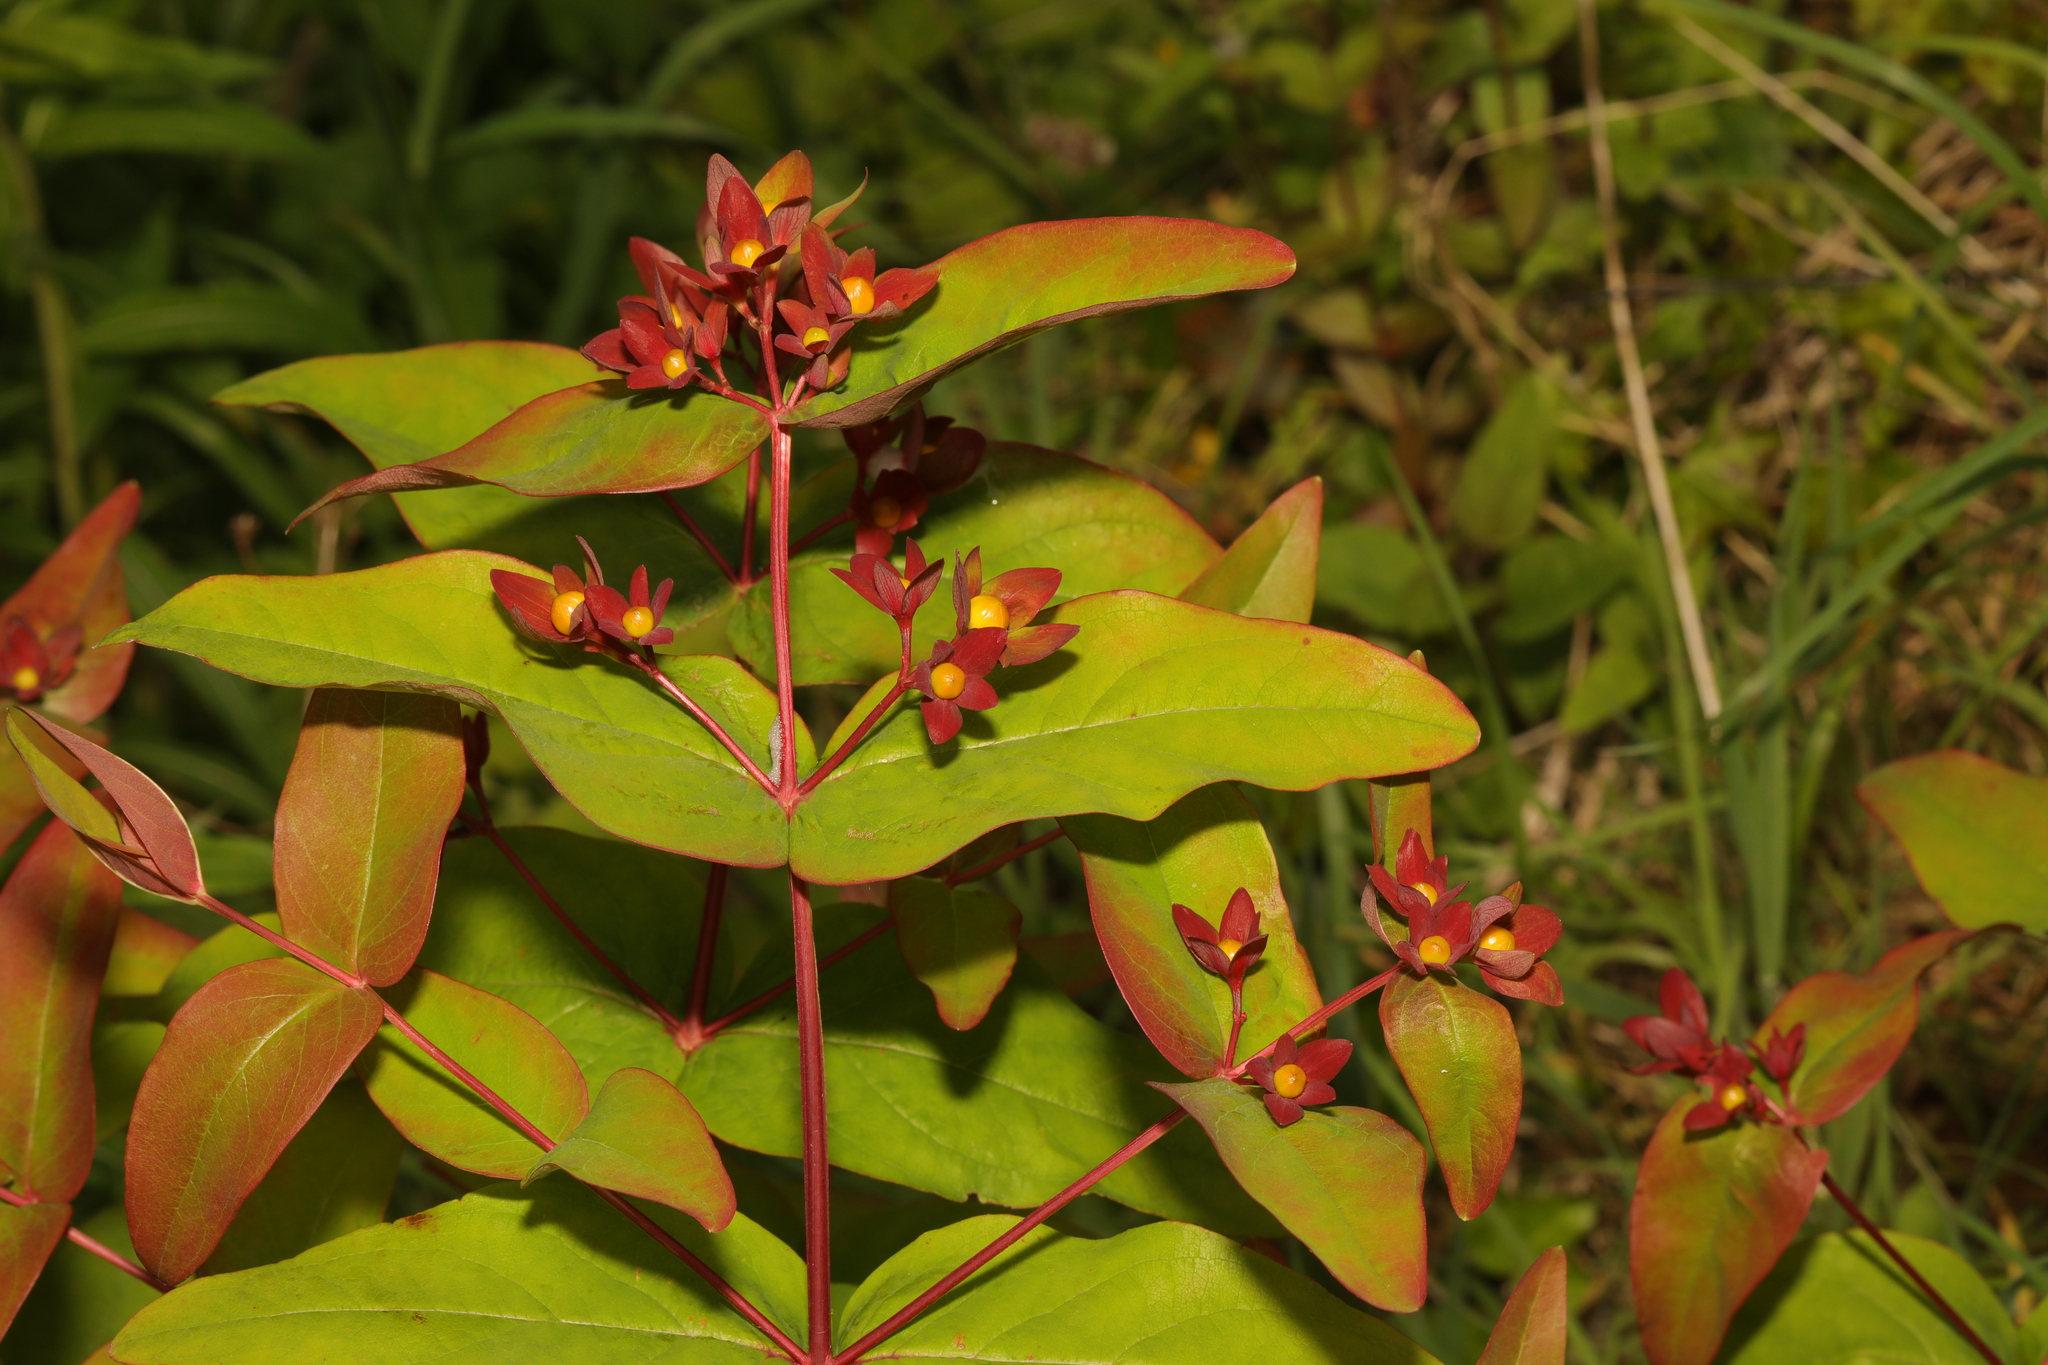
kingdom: Plantae
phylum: Tracheophyta
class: Magnoliopsida
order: Malpighiales
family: Hypericaceae
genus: Hypericum
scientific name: Hypericum androsaemum
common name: Sweet-amber
